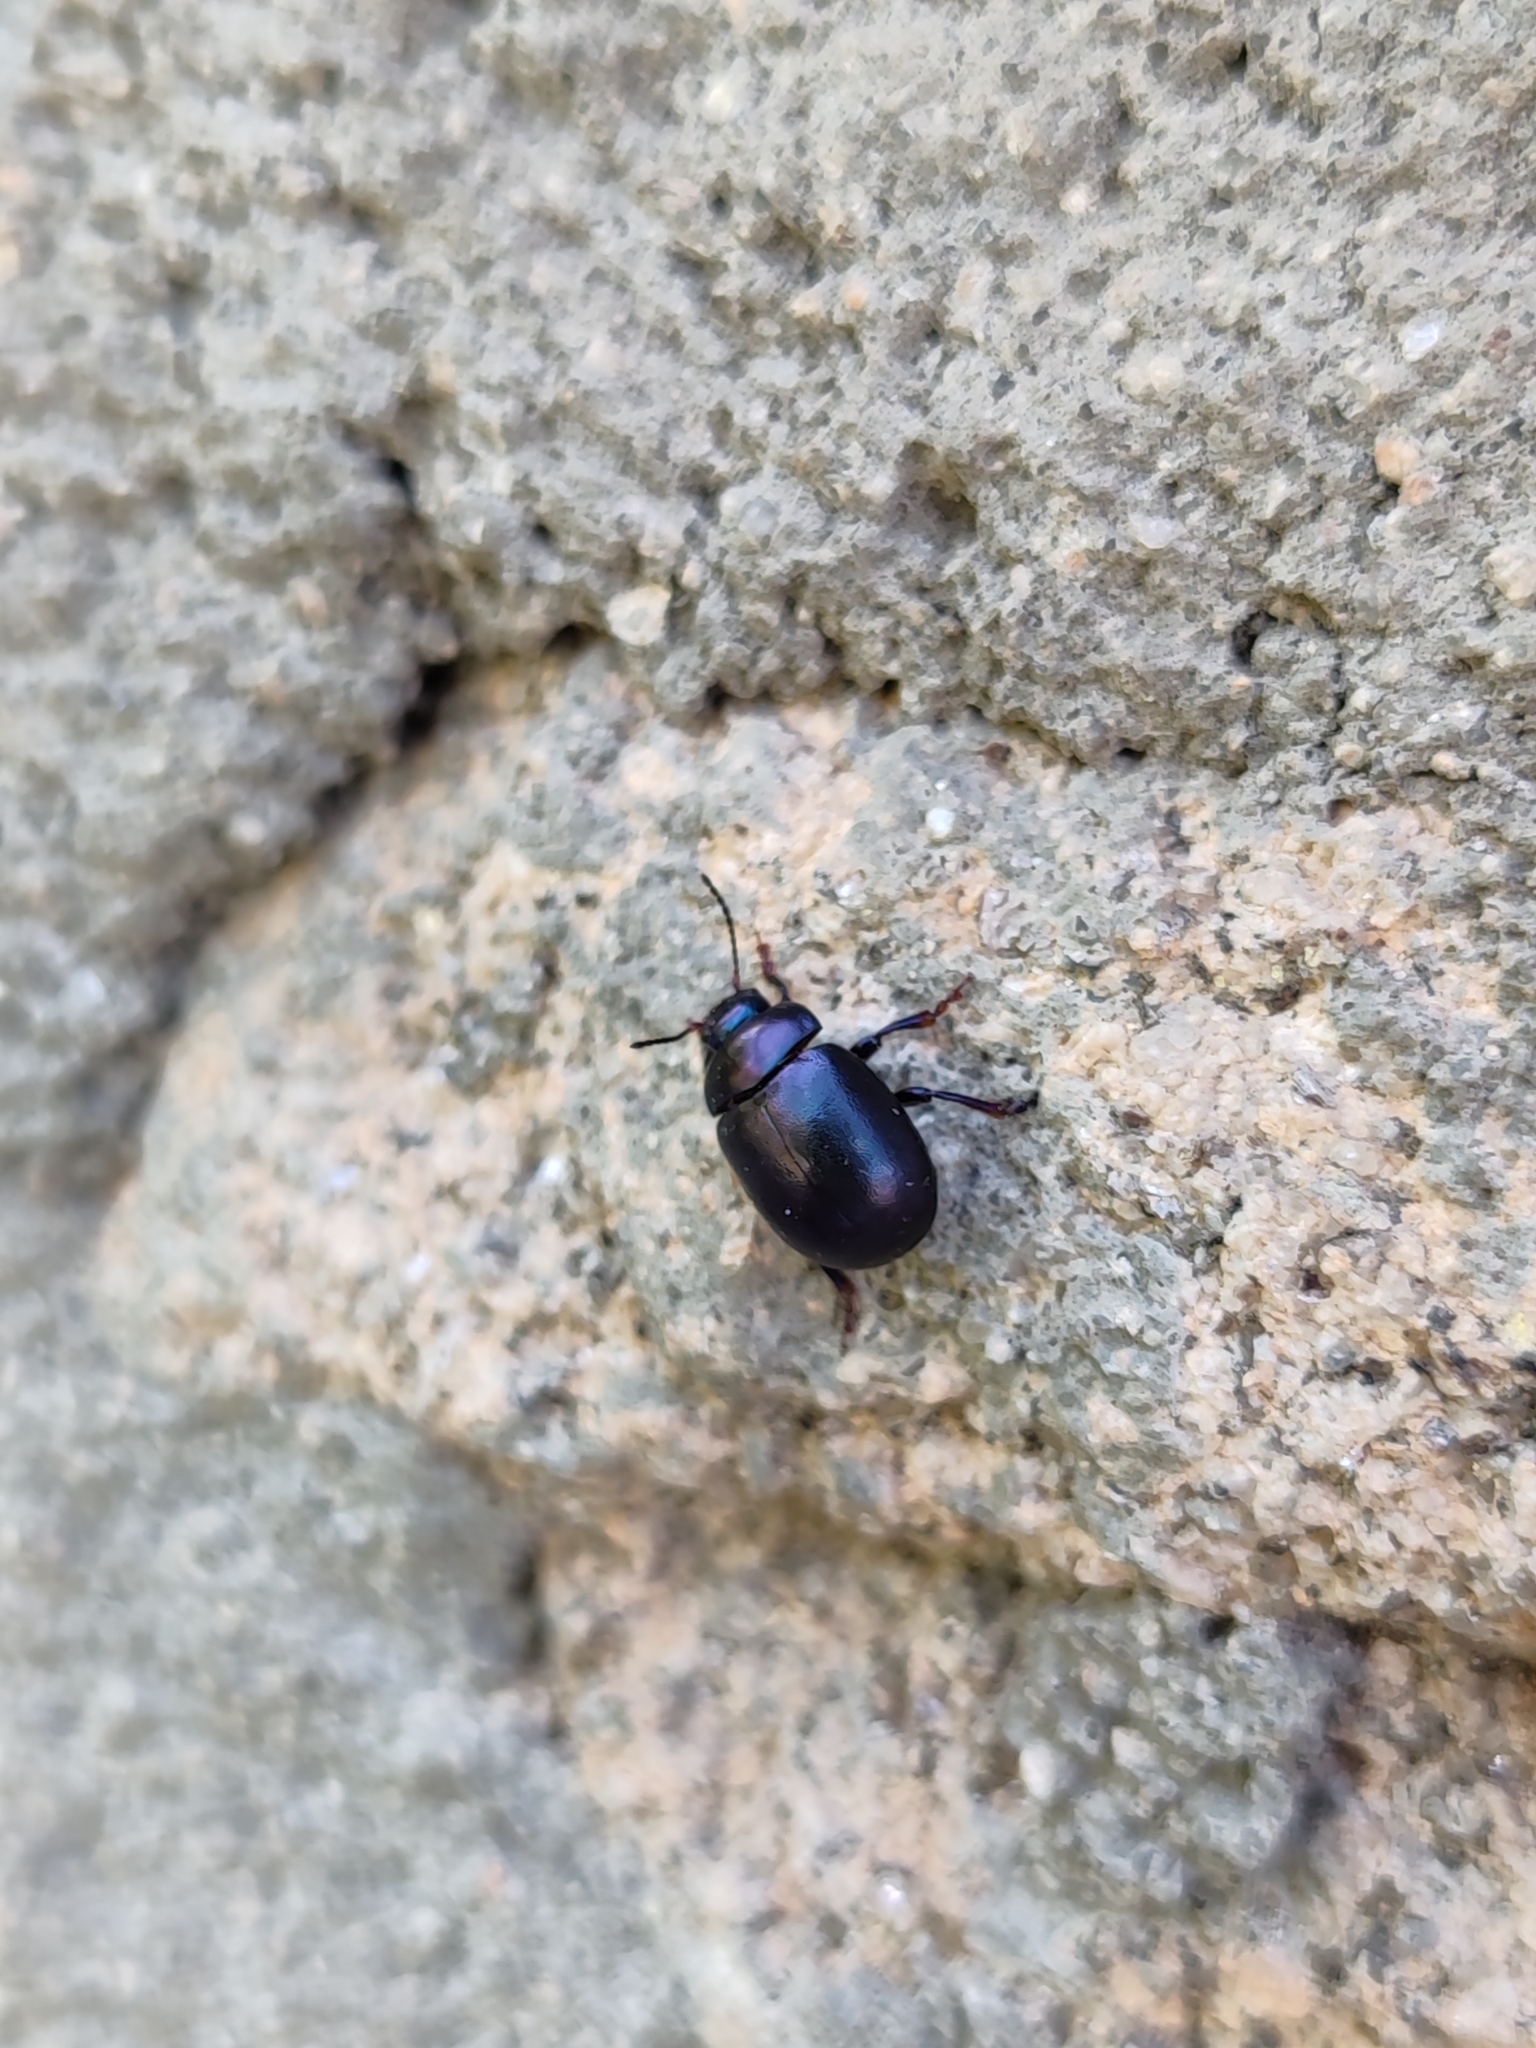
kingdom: Animalia
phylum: Arthropoda
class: Insecta
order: Coleoptera
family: Chrysomelidae
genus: Chrysolina
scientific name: Chrysolina sturmi
